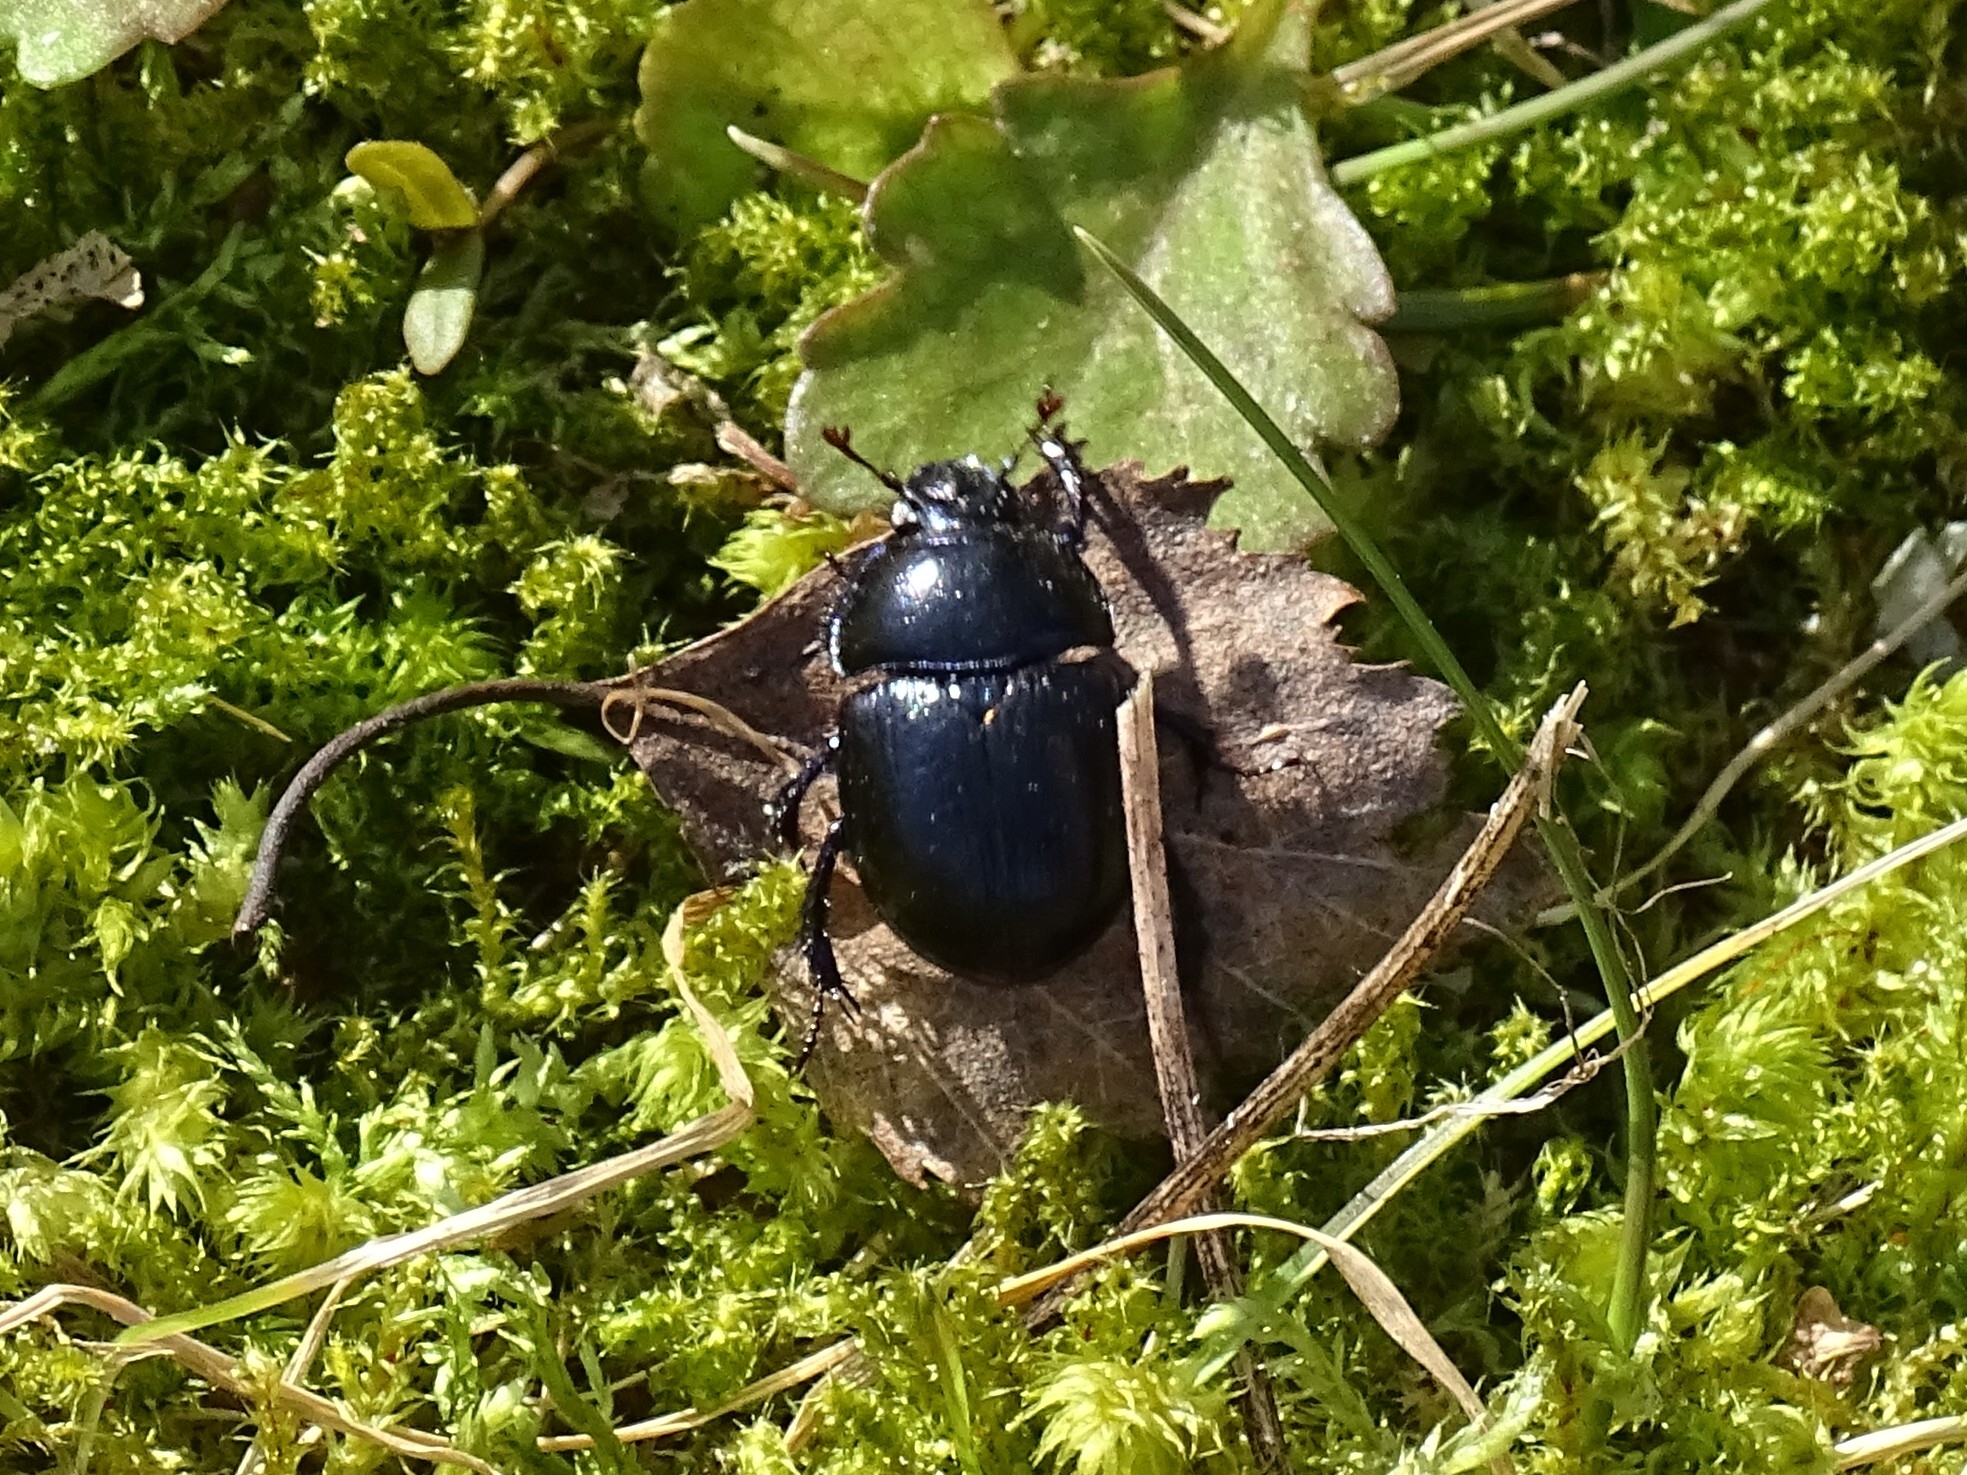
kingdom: Animalia
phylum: Arthropoda
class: Insecta
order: Coleoptera
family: Geotrupidae
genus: Anoplotrupes
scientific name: Anoplotrupes stercorosus
